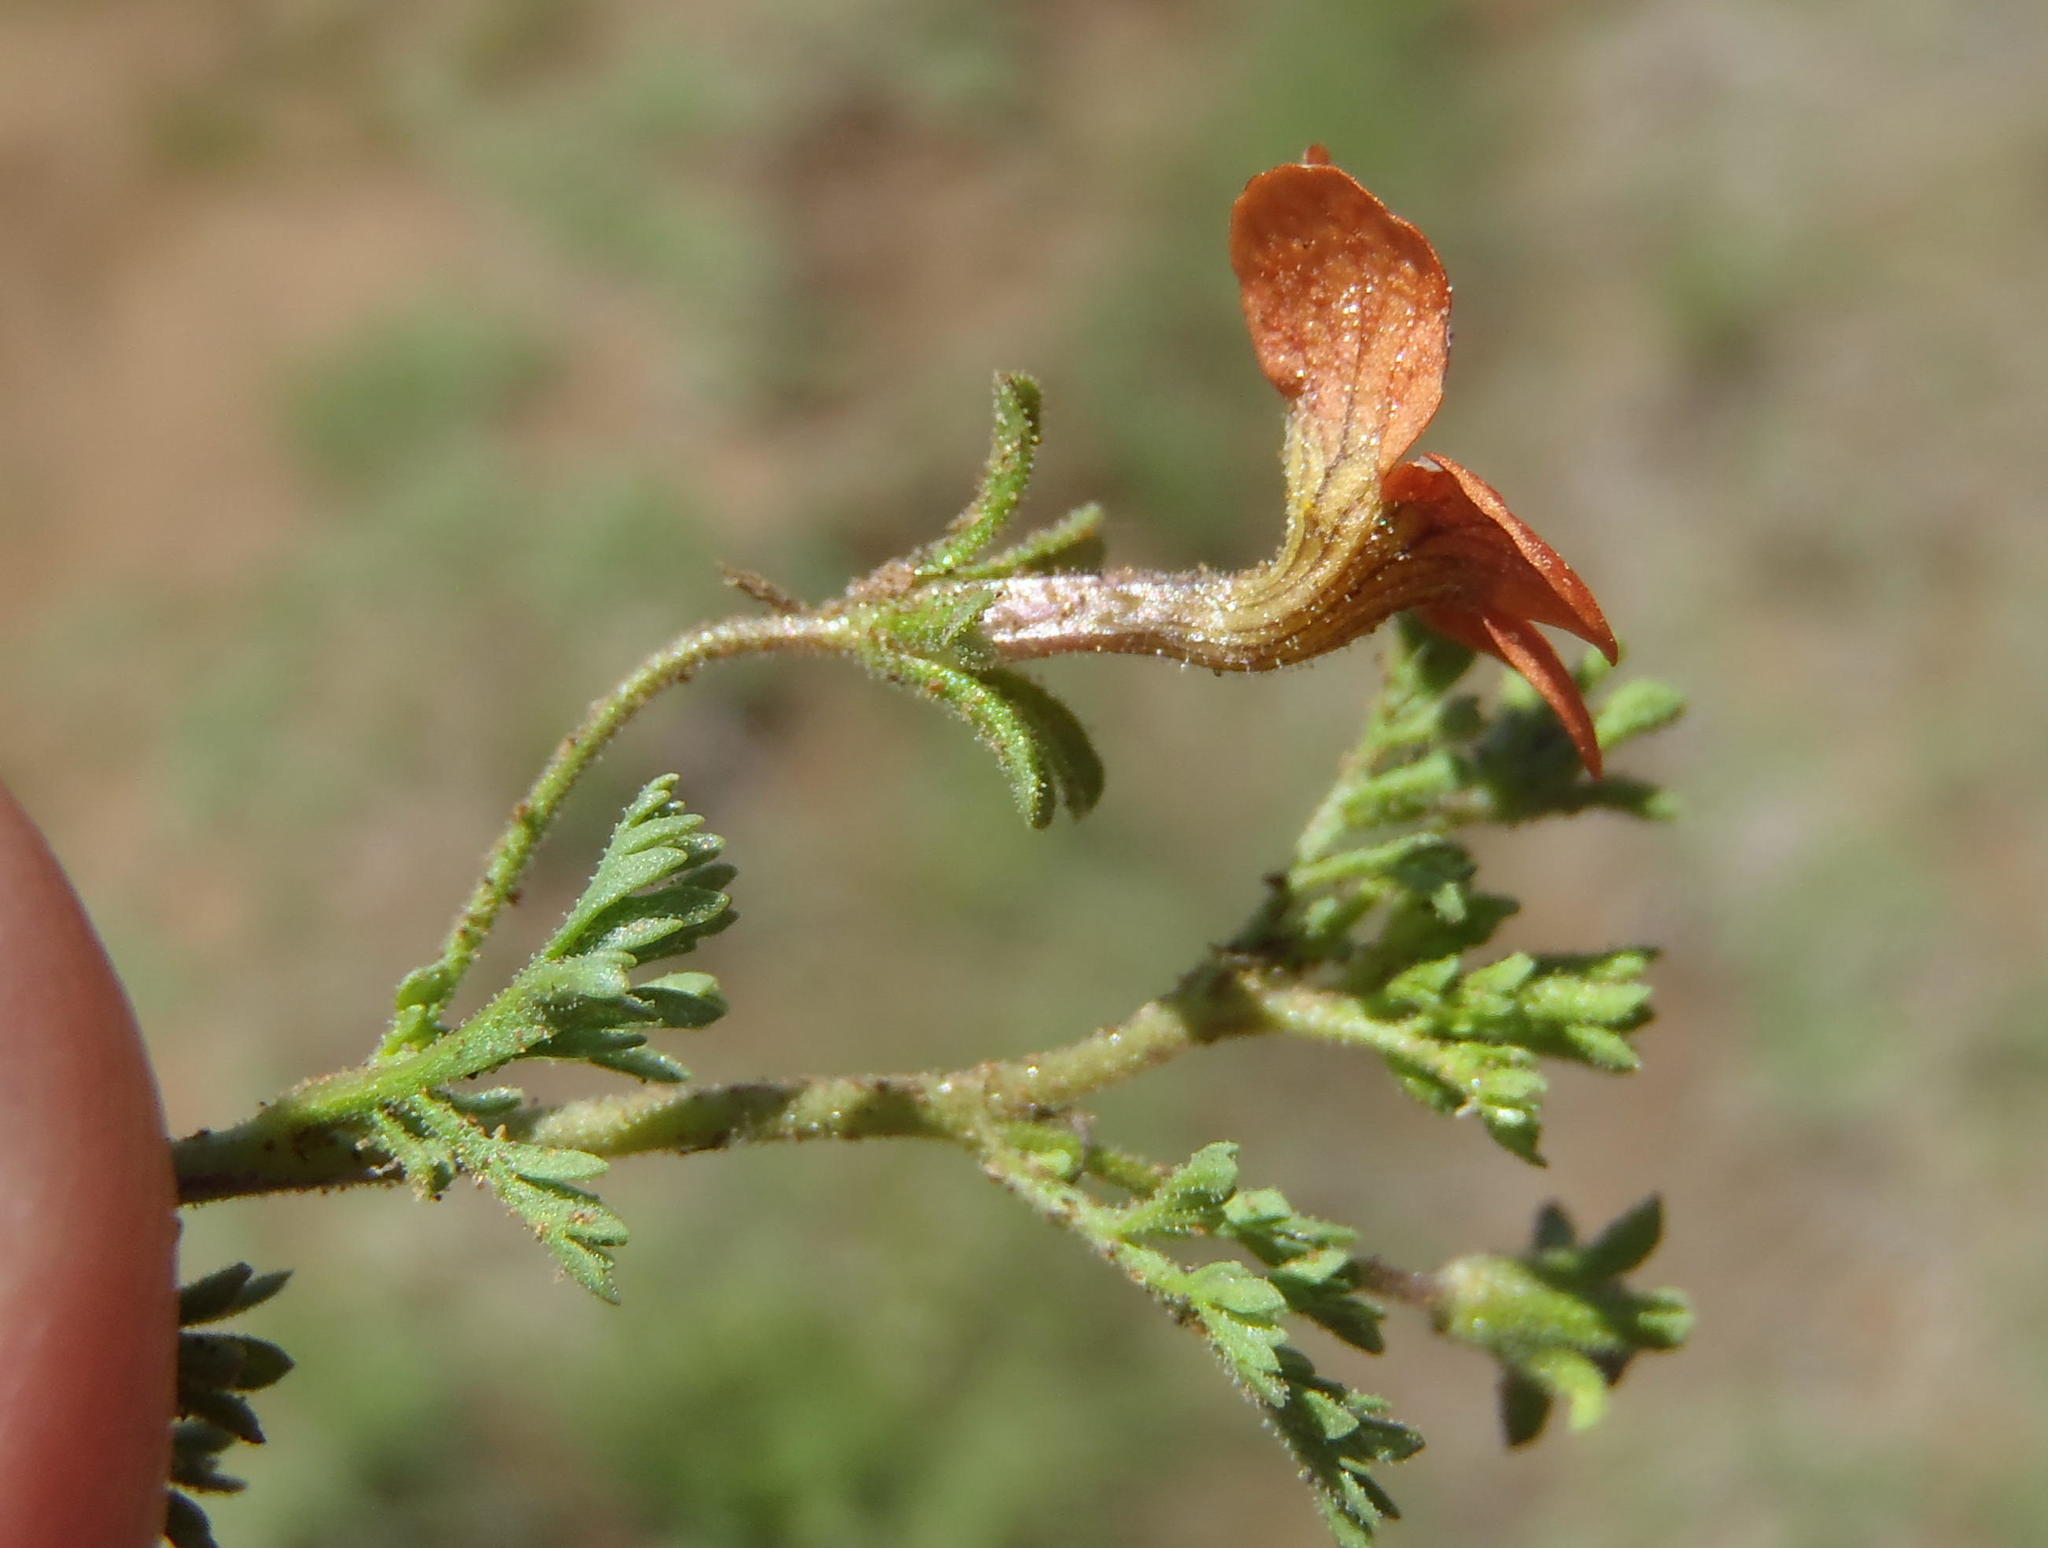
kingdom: Plantae
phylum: Tracheophyta
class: Magnoliopsida
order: Lamiales
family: Scrophulariaceae
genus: Jamesbrittenia
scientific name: Jamesbrittenia aurantiaca
